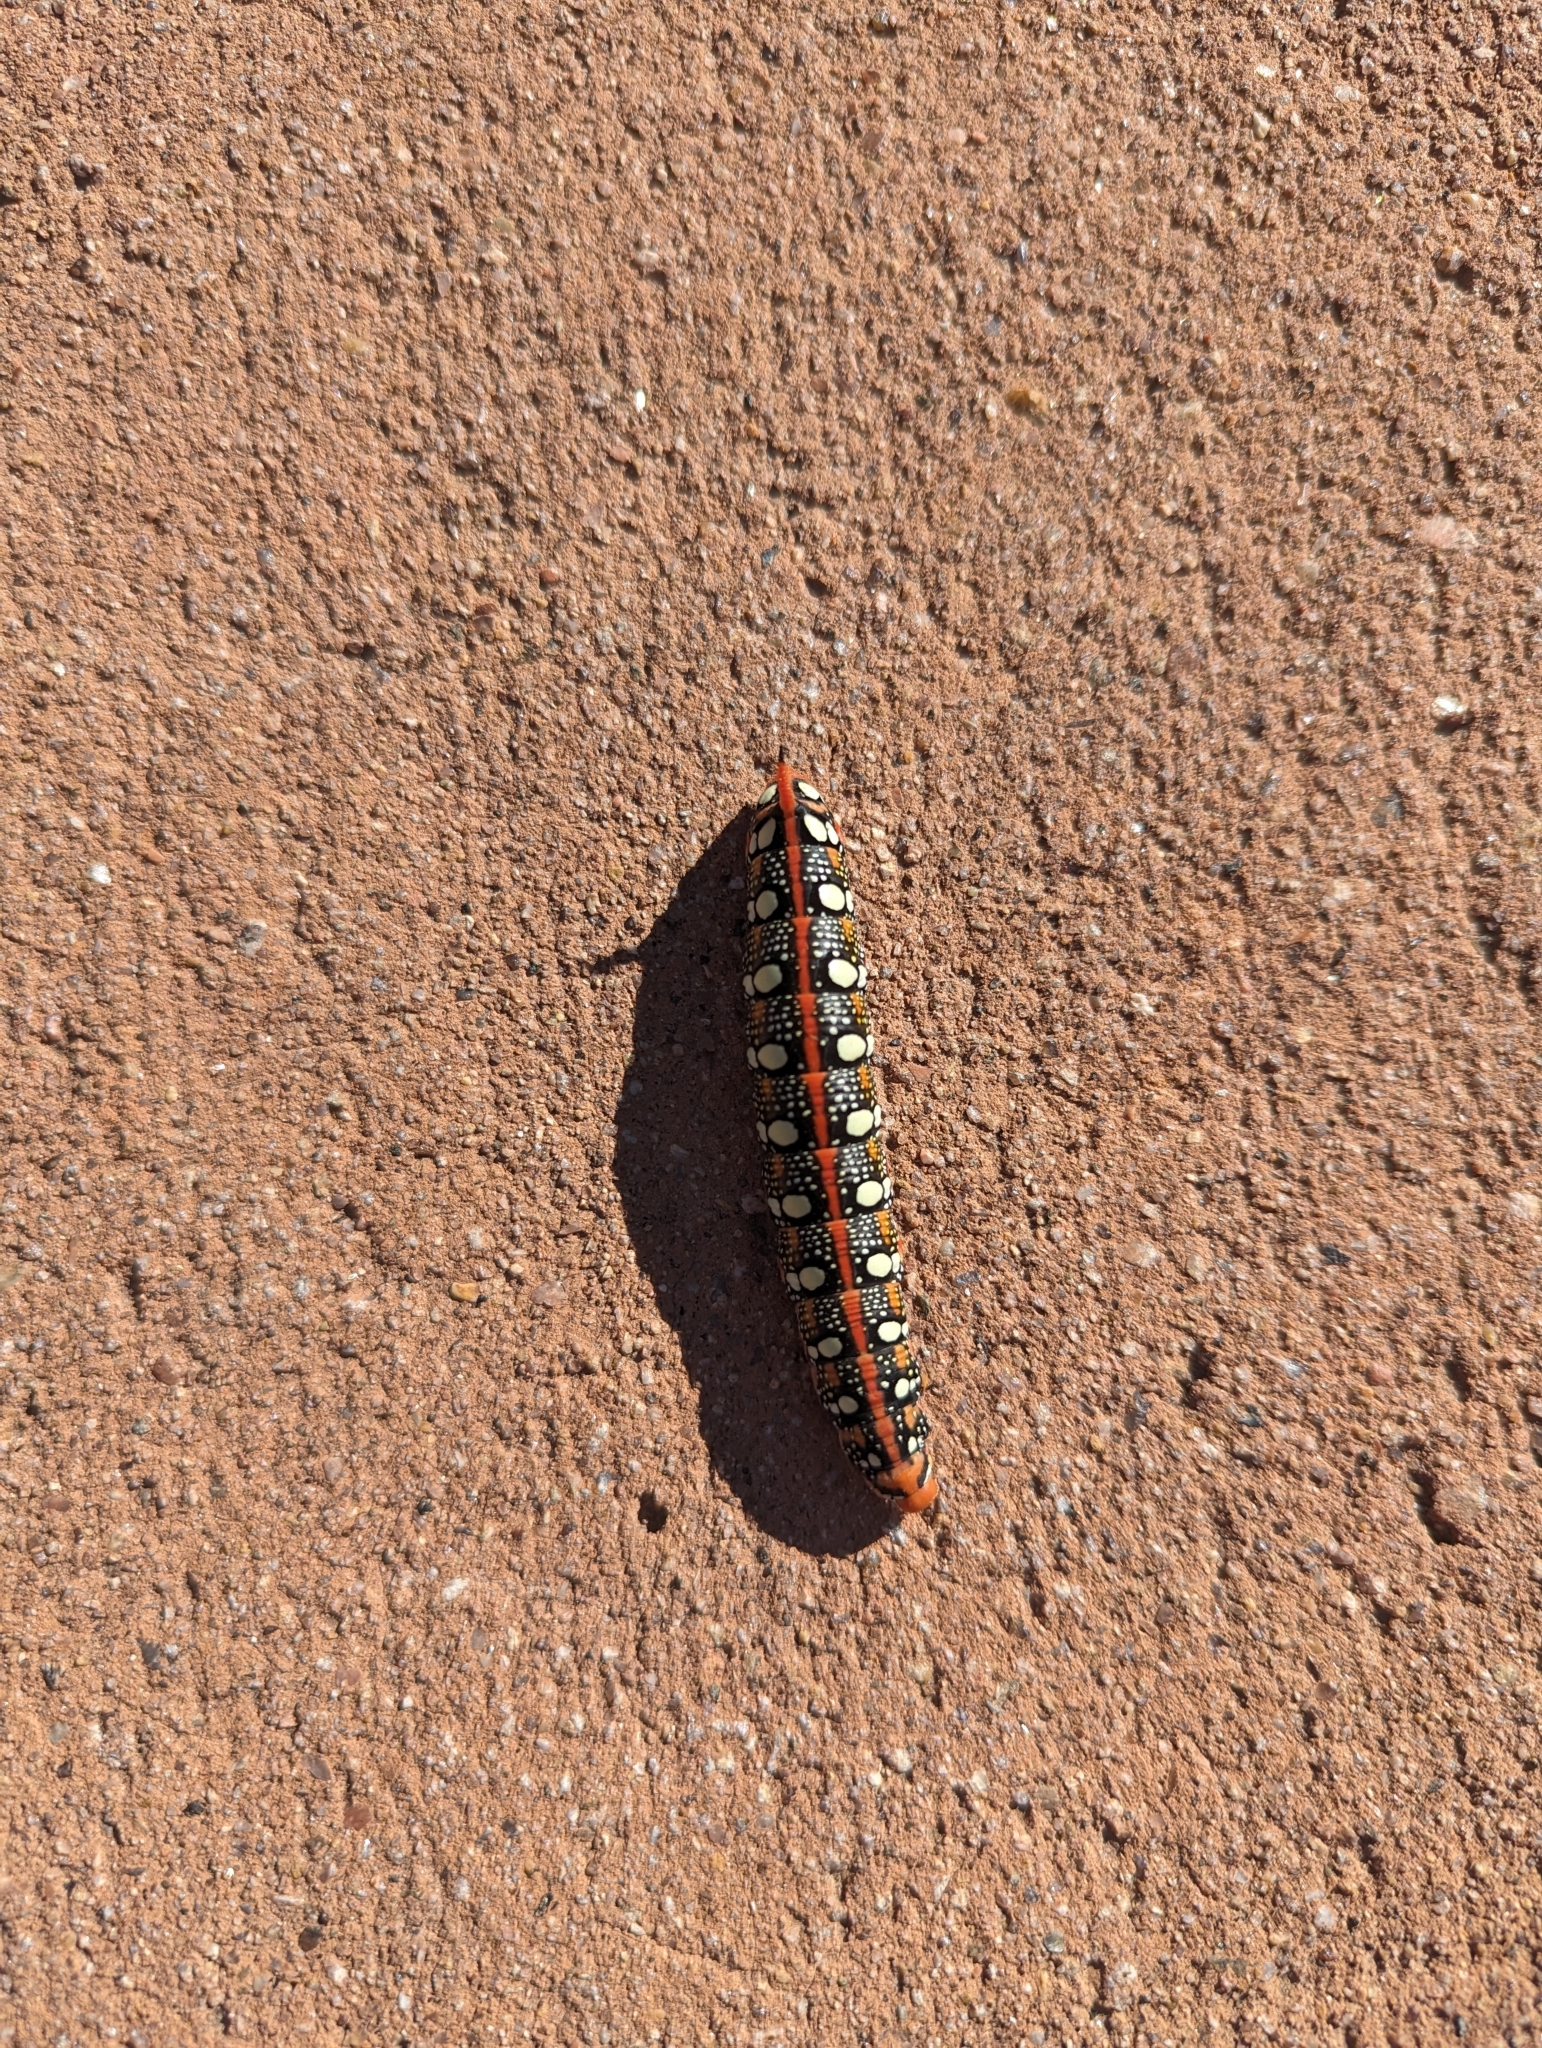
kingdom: Animalia
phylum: Arthropoda
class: Insecta
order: Lepidoptera
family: Sphingidae
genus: Hyles
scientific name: Hyles euphorbiae
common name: Spurge hawk-moth
